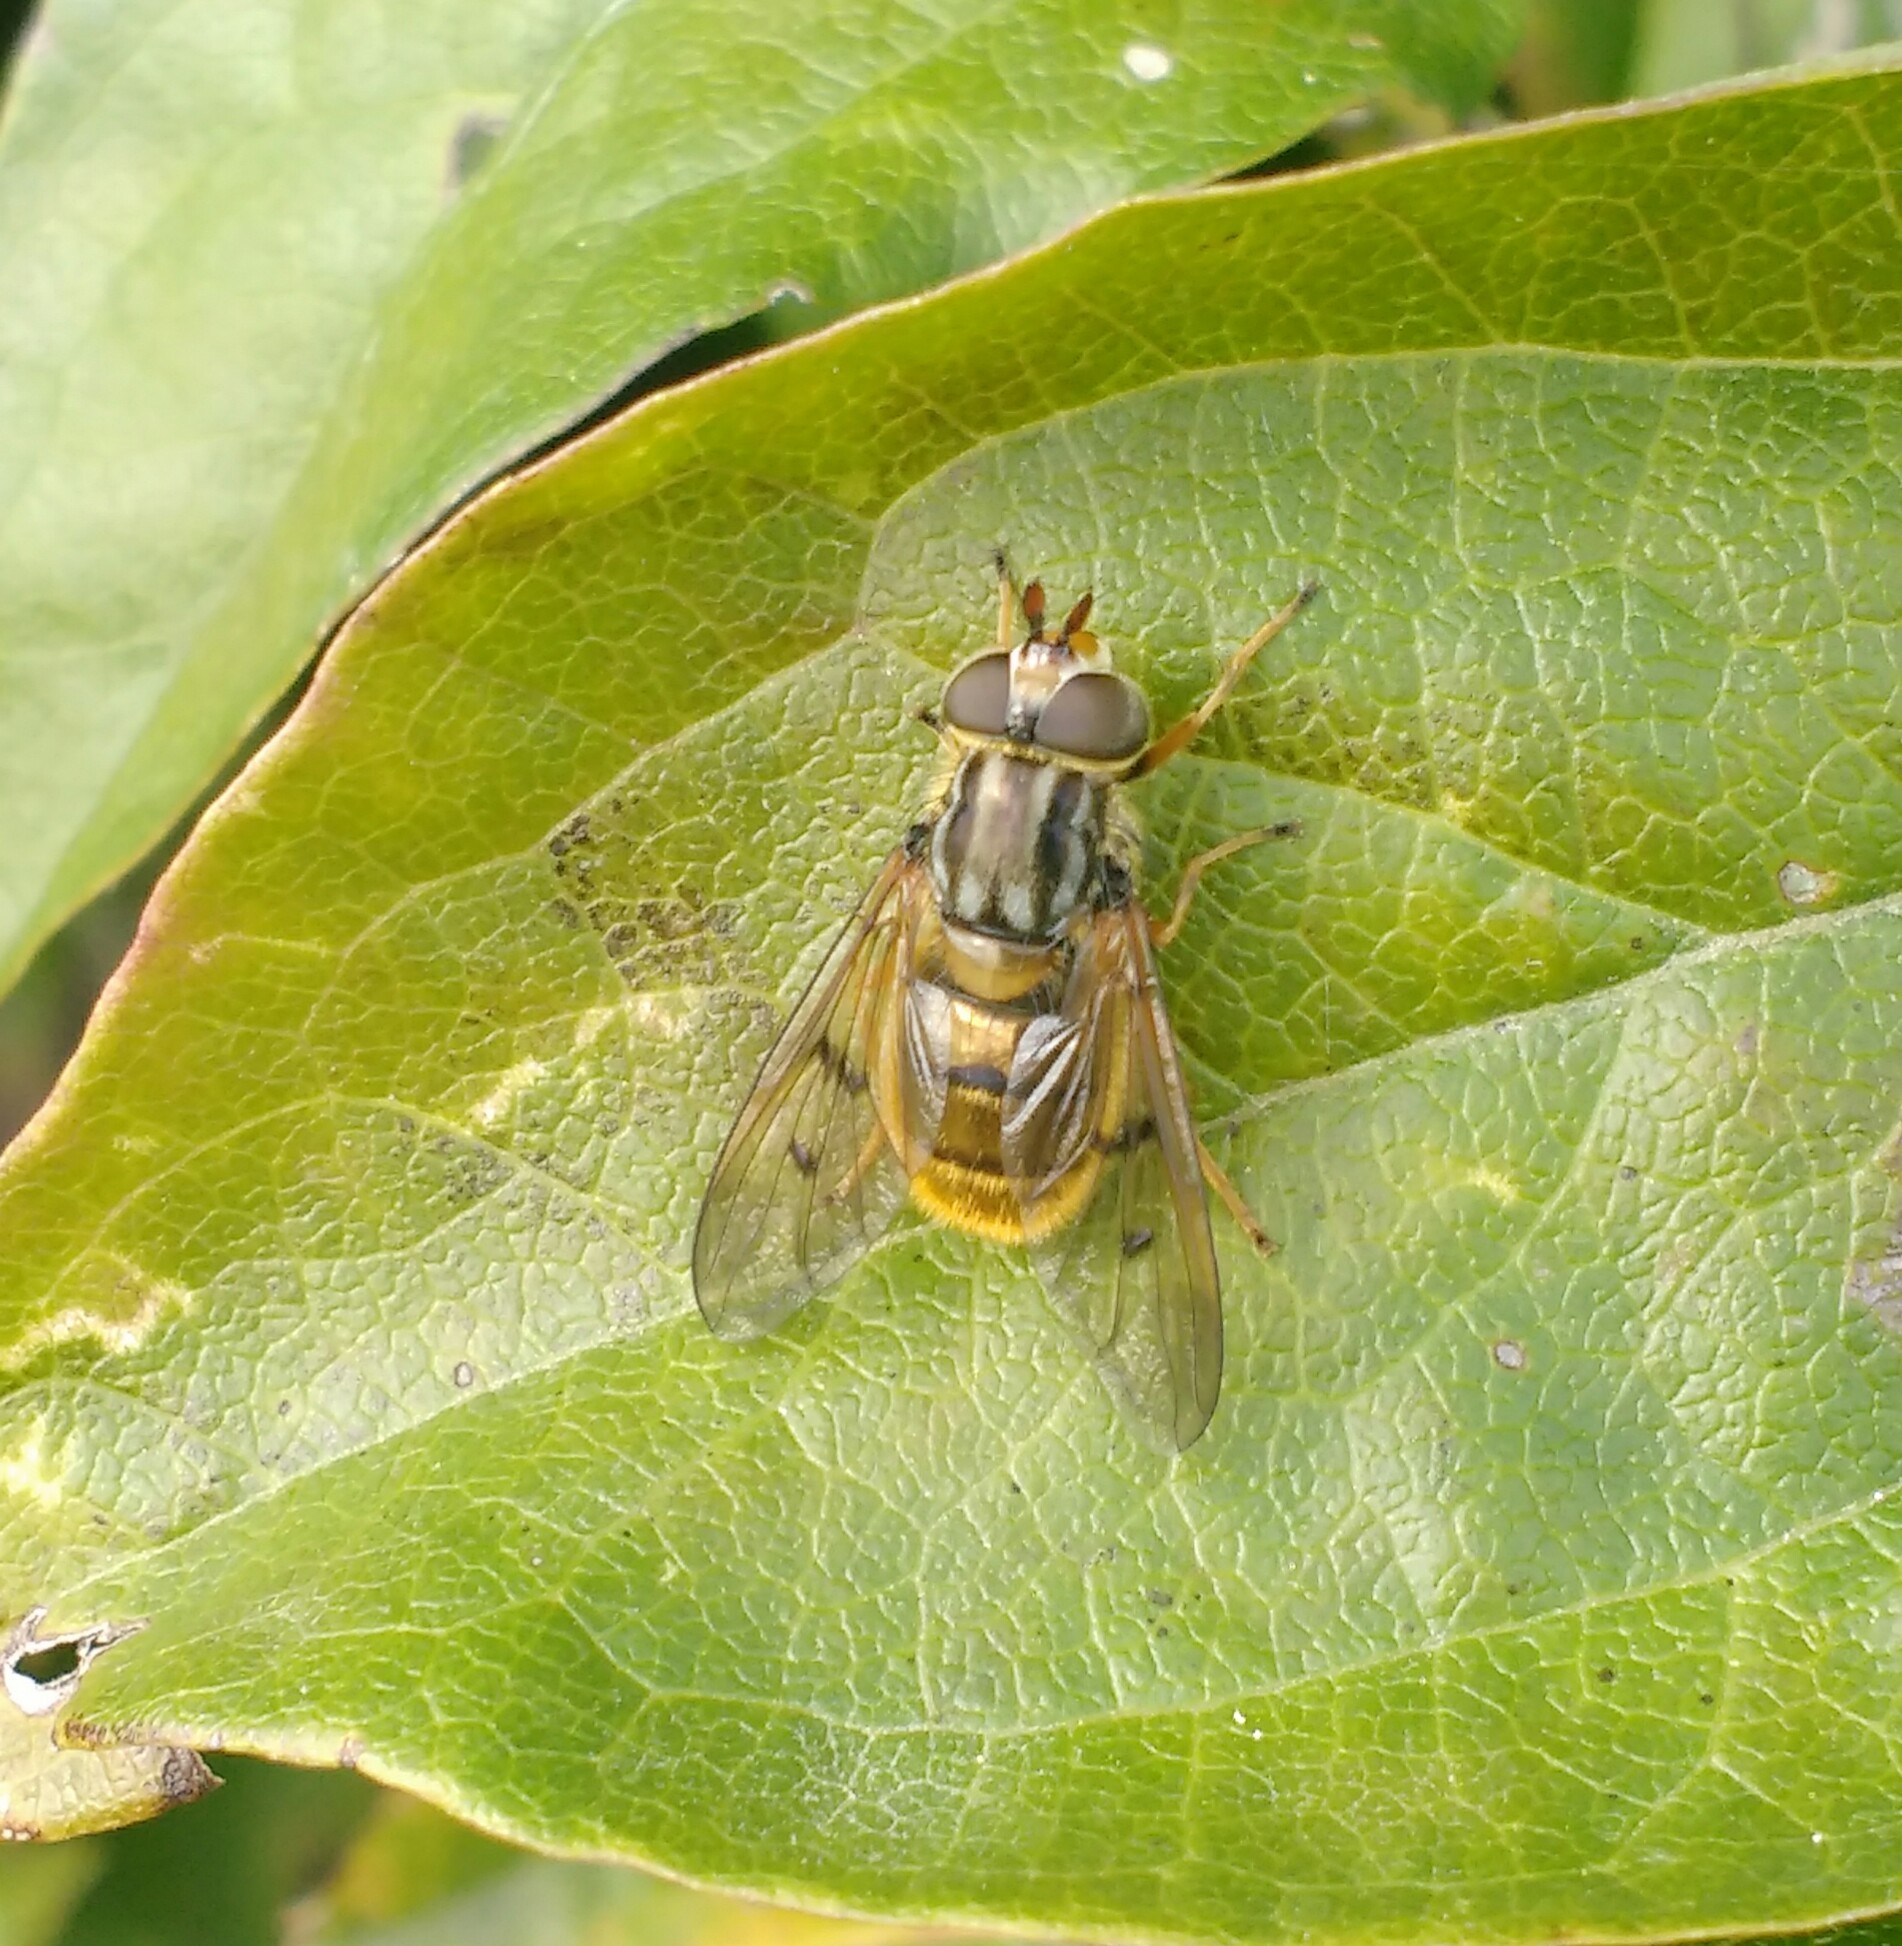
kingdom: Animalia
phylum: Arthropoda
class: Insecta
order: Diptera
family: Syrphidae
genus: Ferdinandea
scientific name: Ferdinandea cuprea
